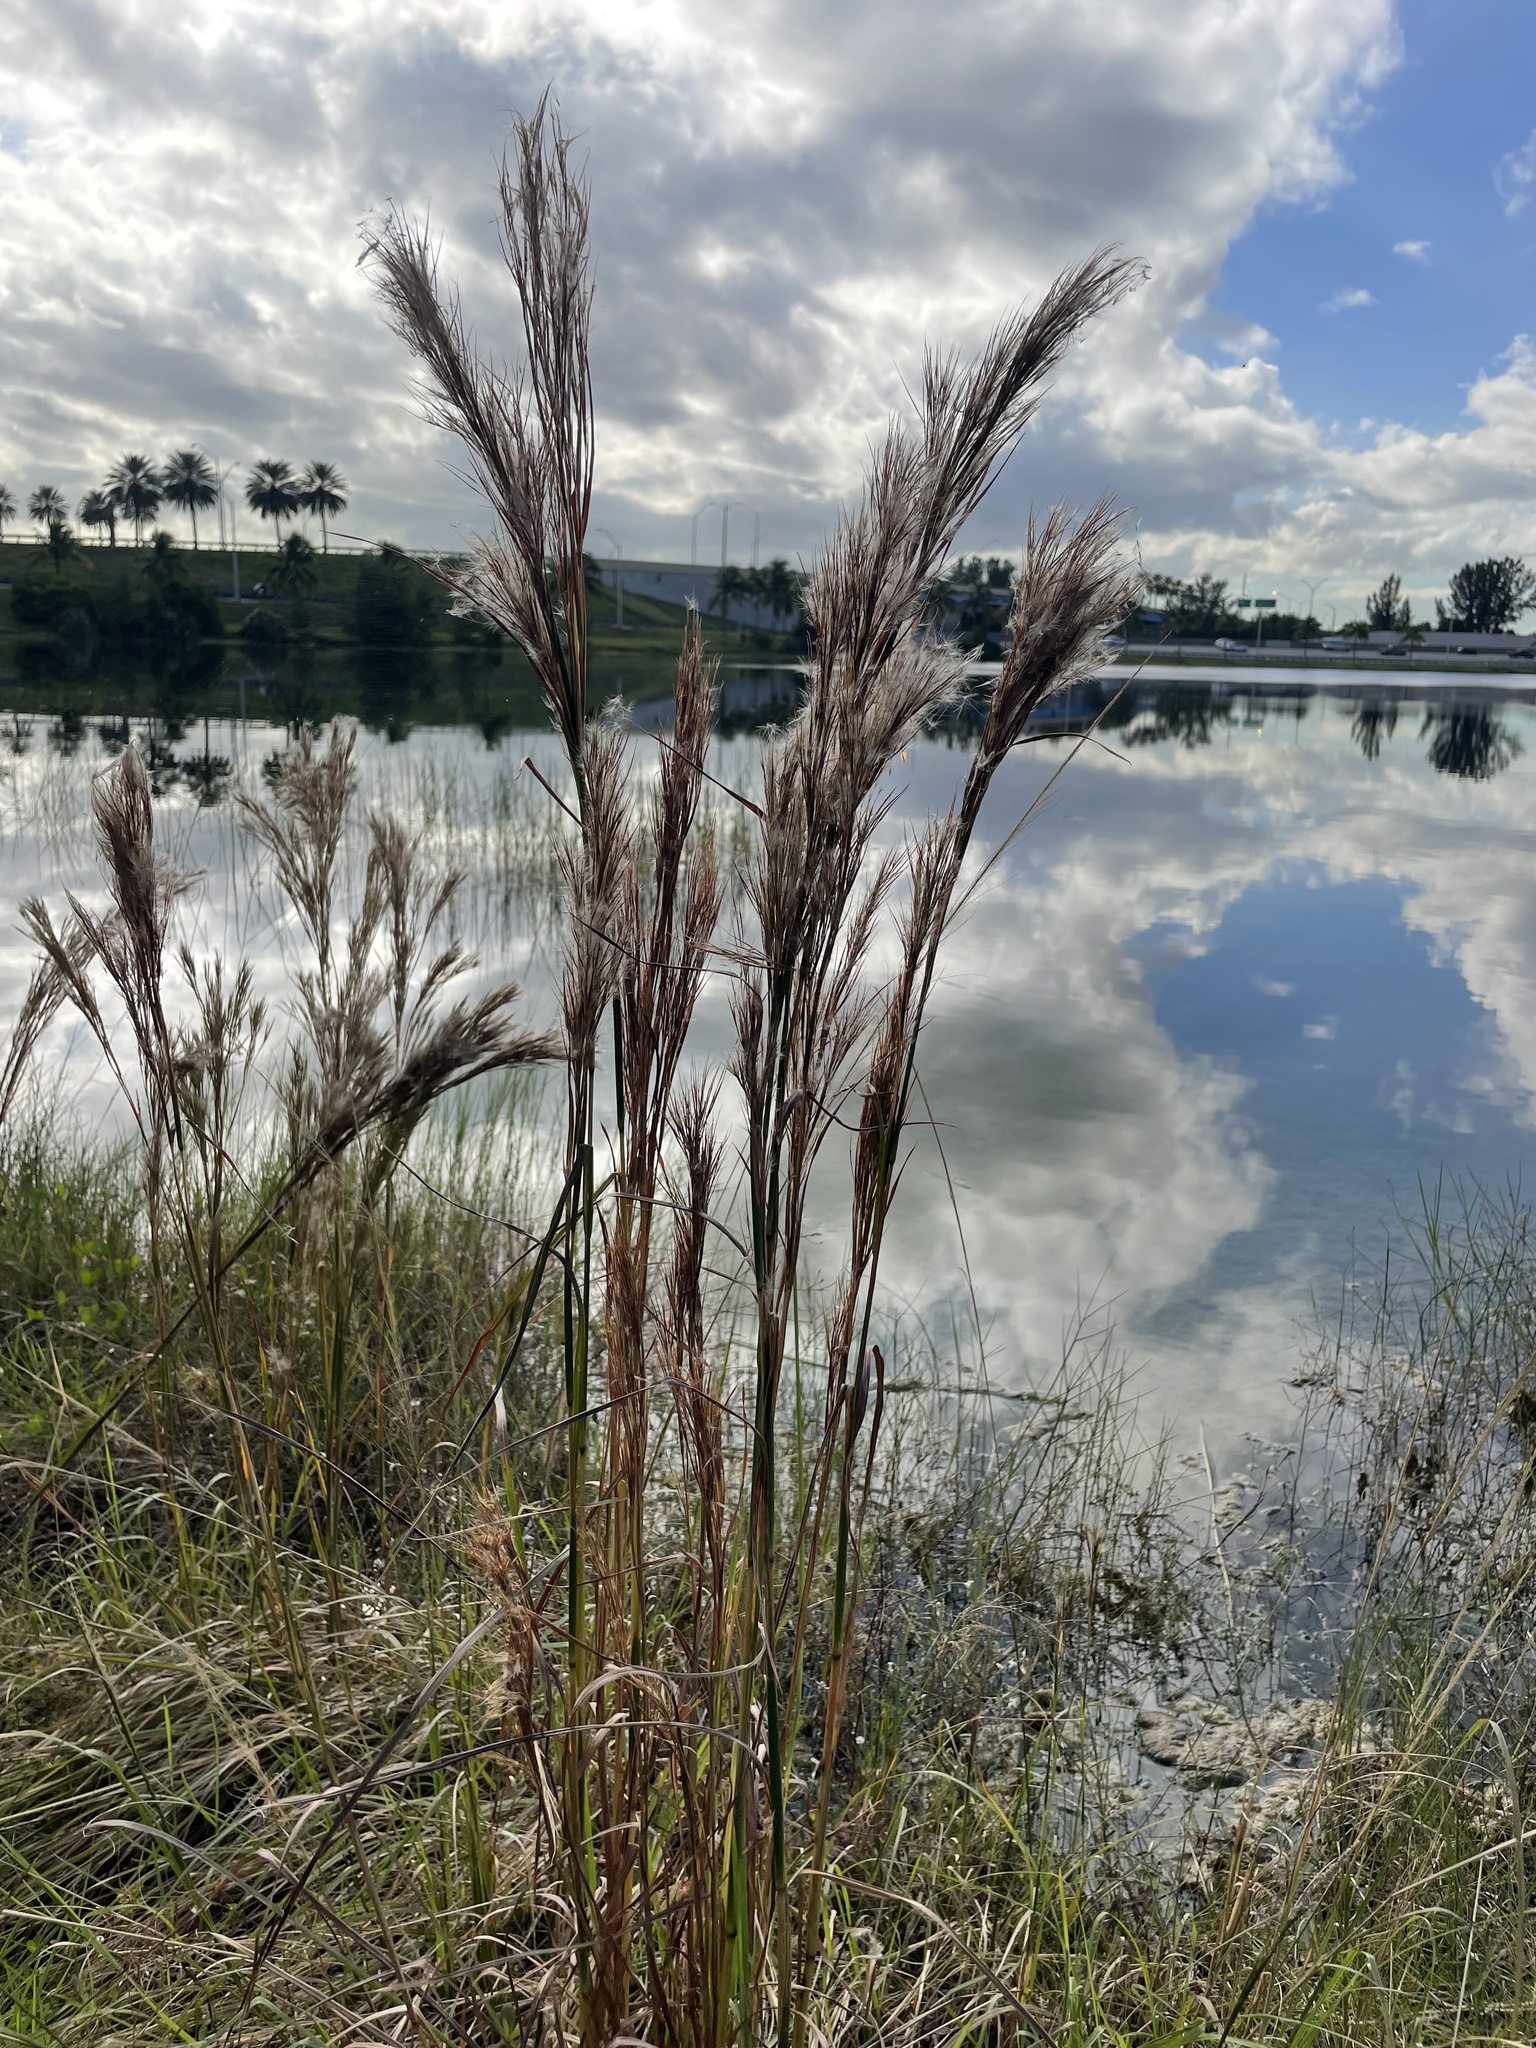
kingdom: Plantae
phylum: Tracheophyta
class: Liliopsida
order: Poales
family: Poaceae
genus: Andropogon
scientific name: Andropogon tenuispatheus
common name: Bushy bluestem
